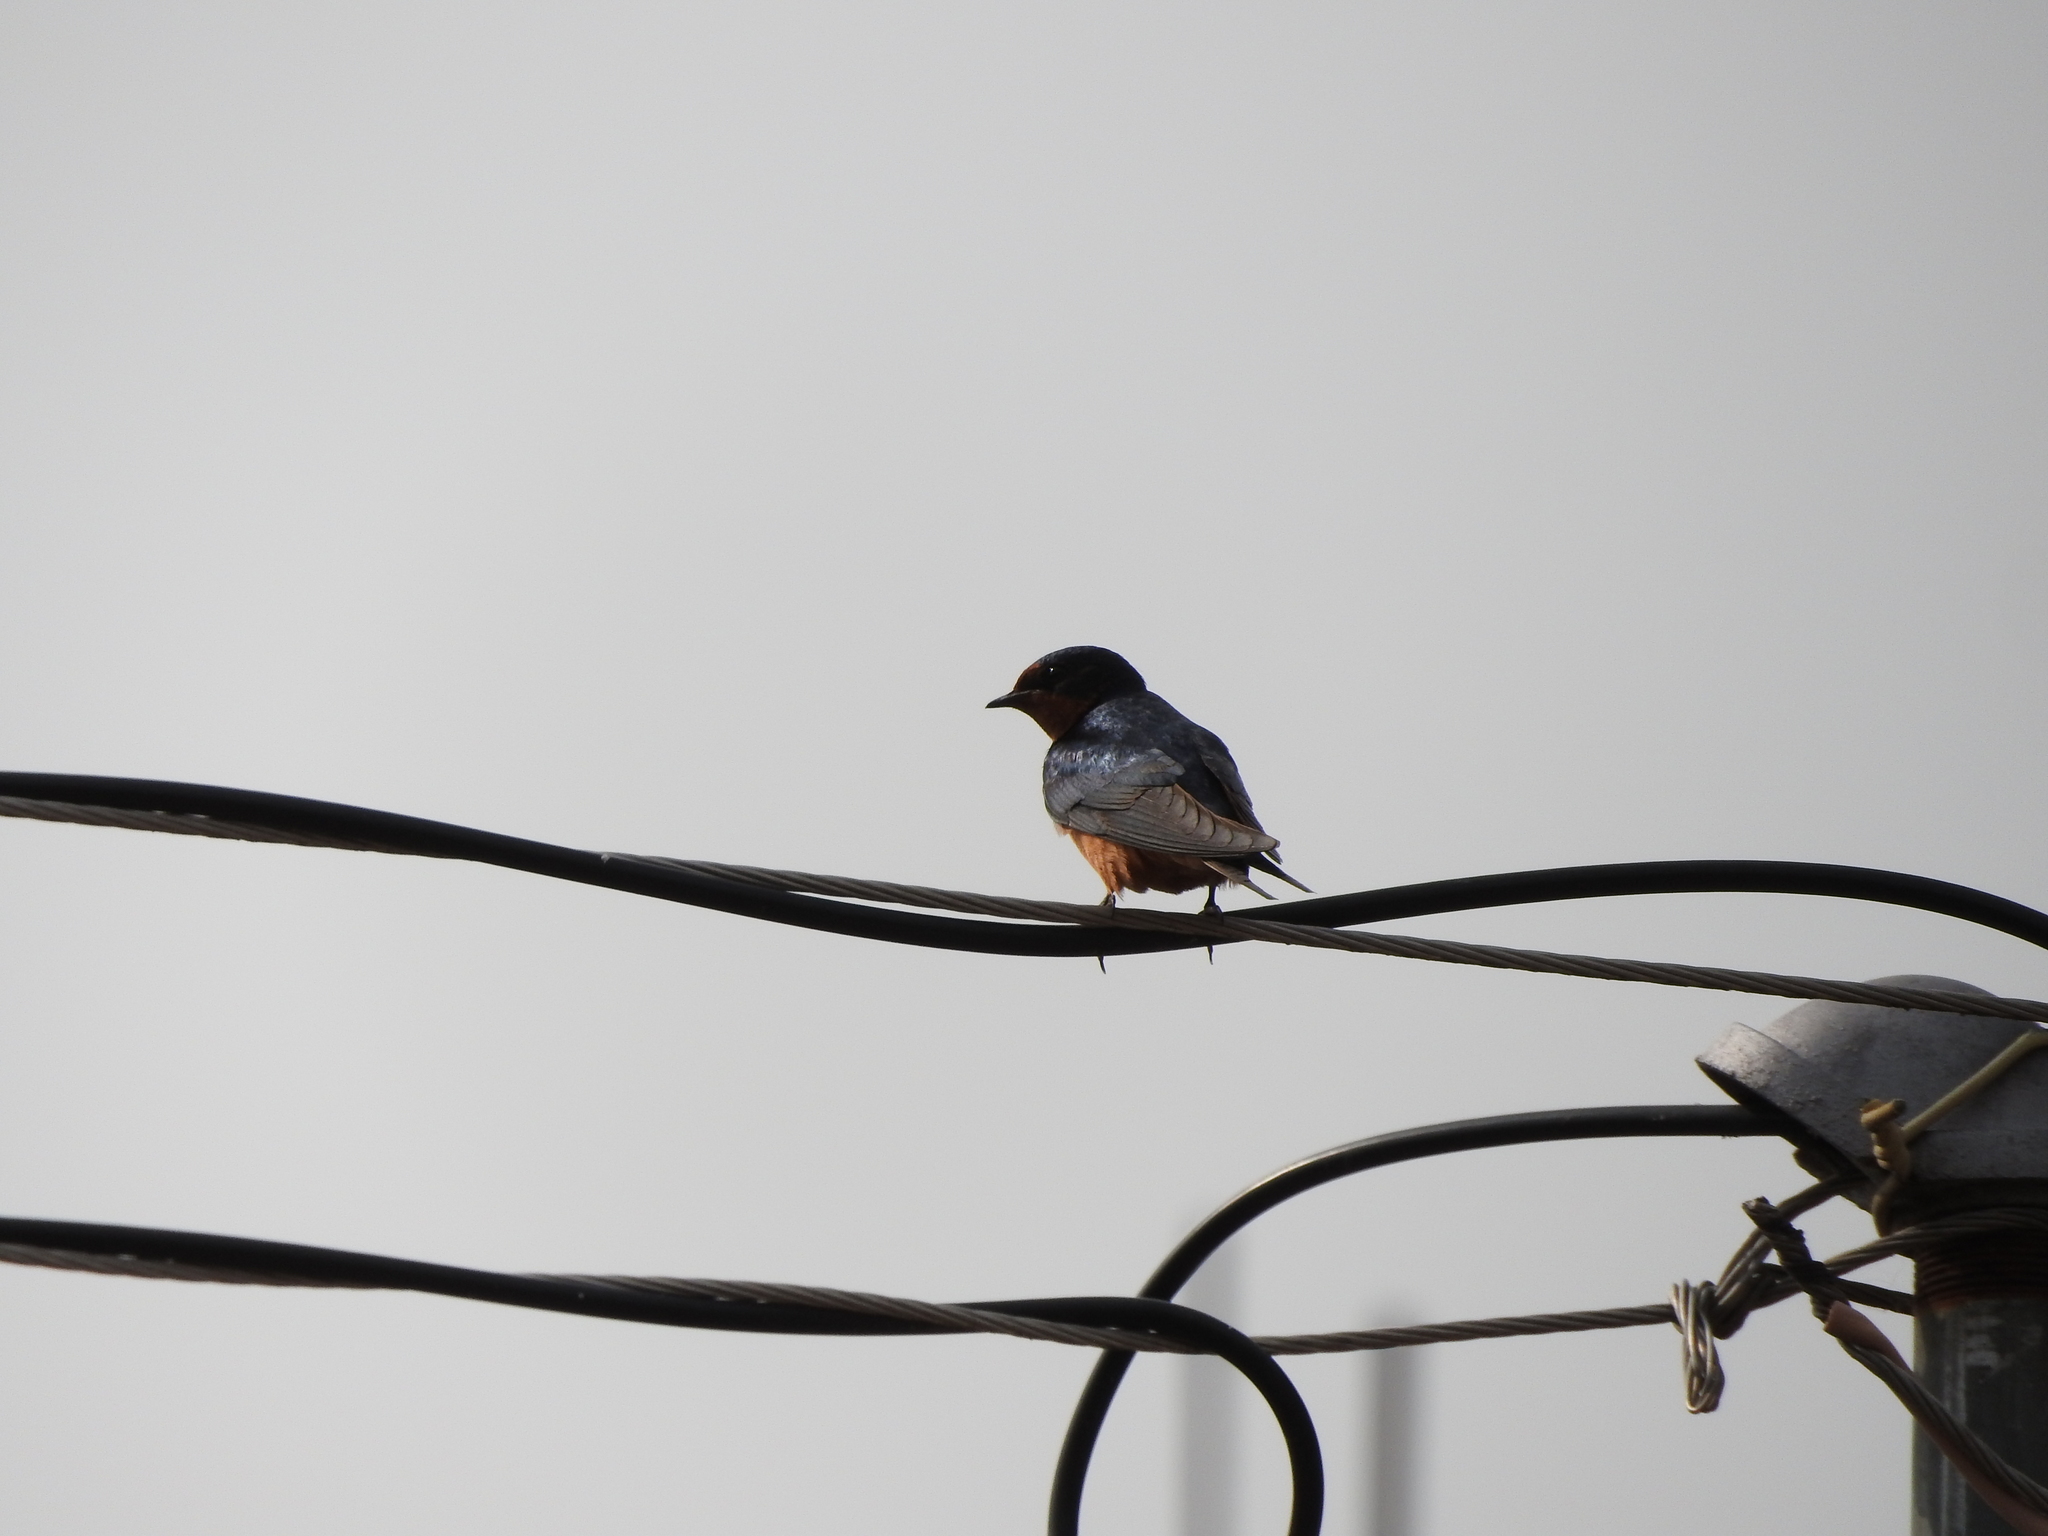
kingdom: Animalia
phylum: Chordata
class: Aves
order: Passeriformes
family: Hirundinidae
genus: Hirundo
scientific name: Hirundo rustica
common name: Barn swallow
